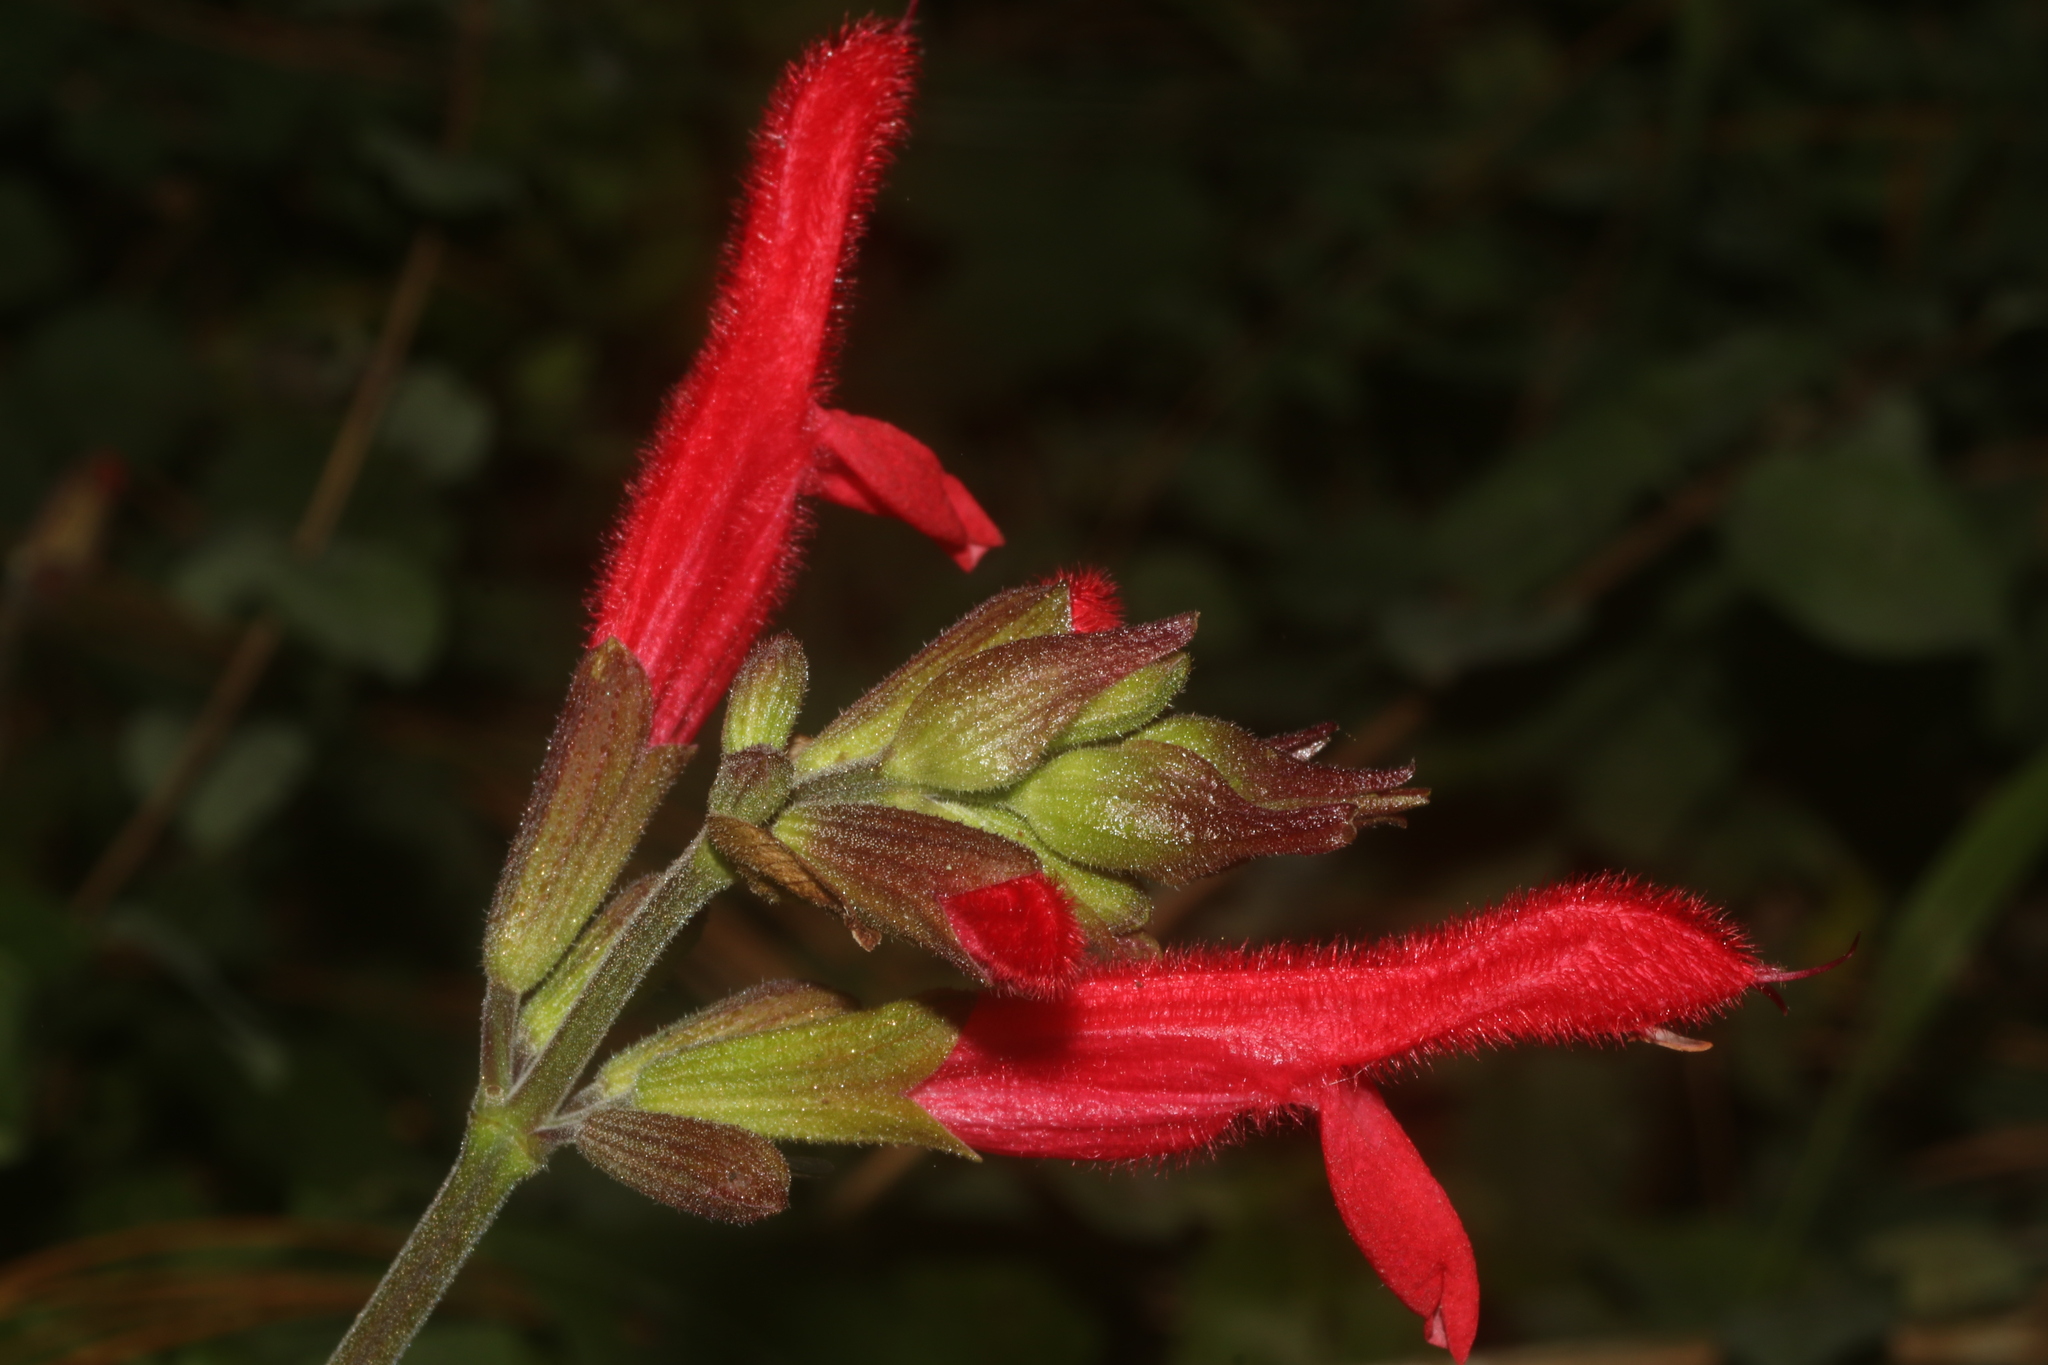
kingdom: Plantae
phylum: Tracheophyta
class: Magnoliopsida
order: Lamiales
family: Lamiaceae
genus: Salvia
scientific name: Salvia fulgens
